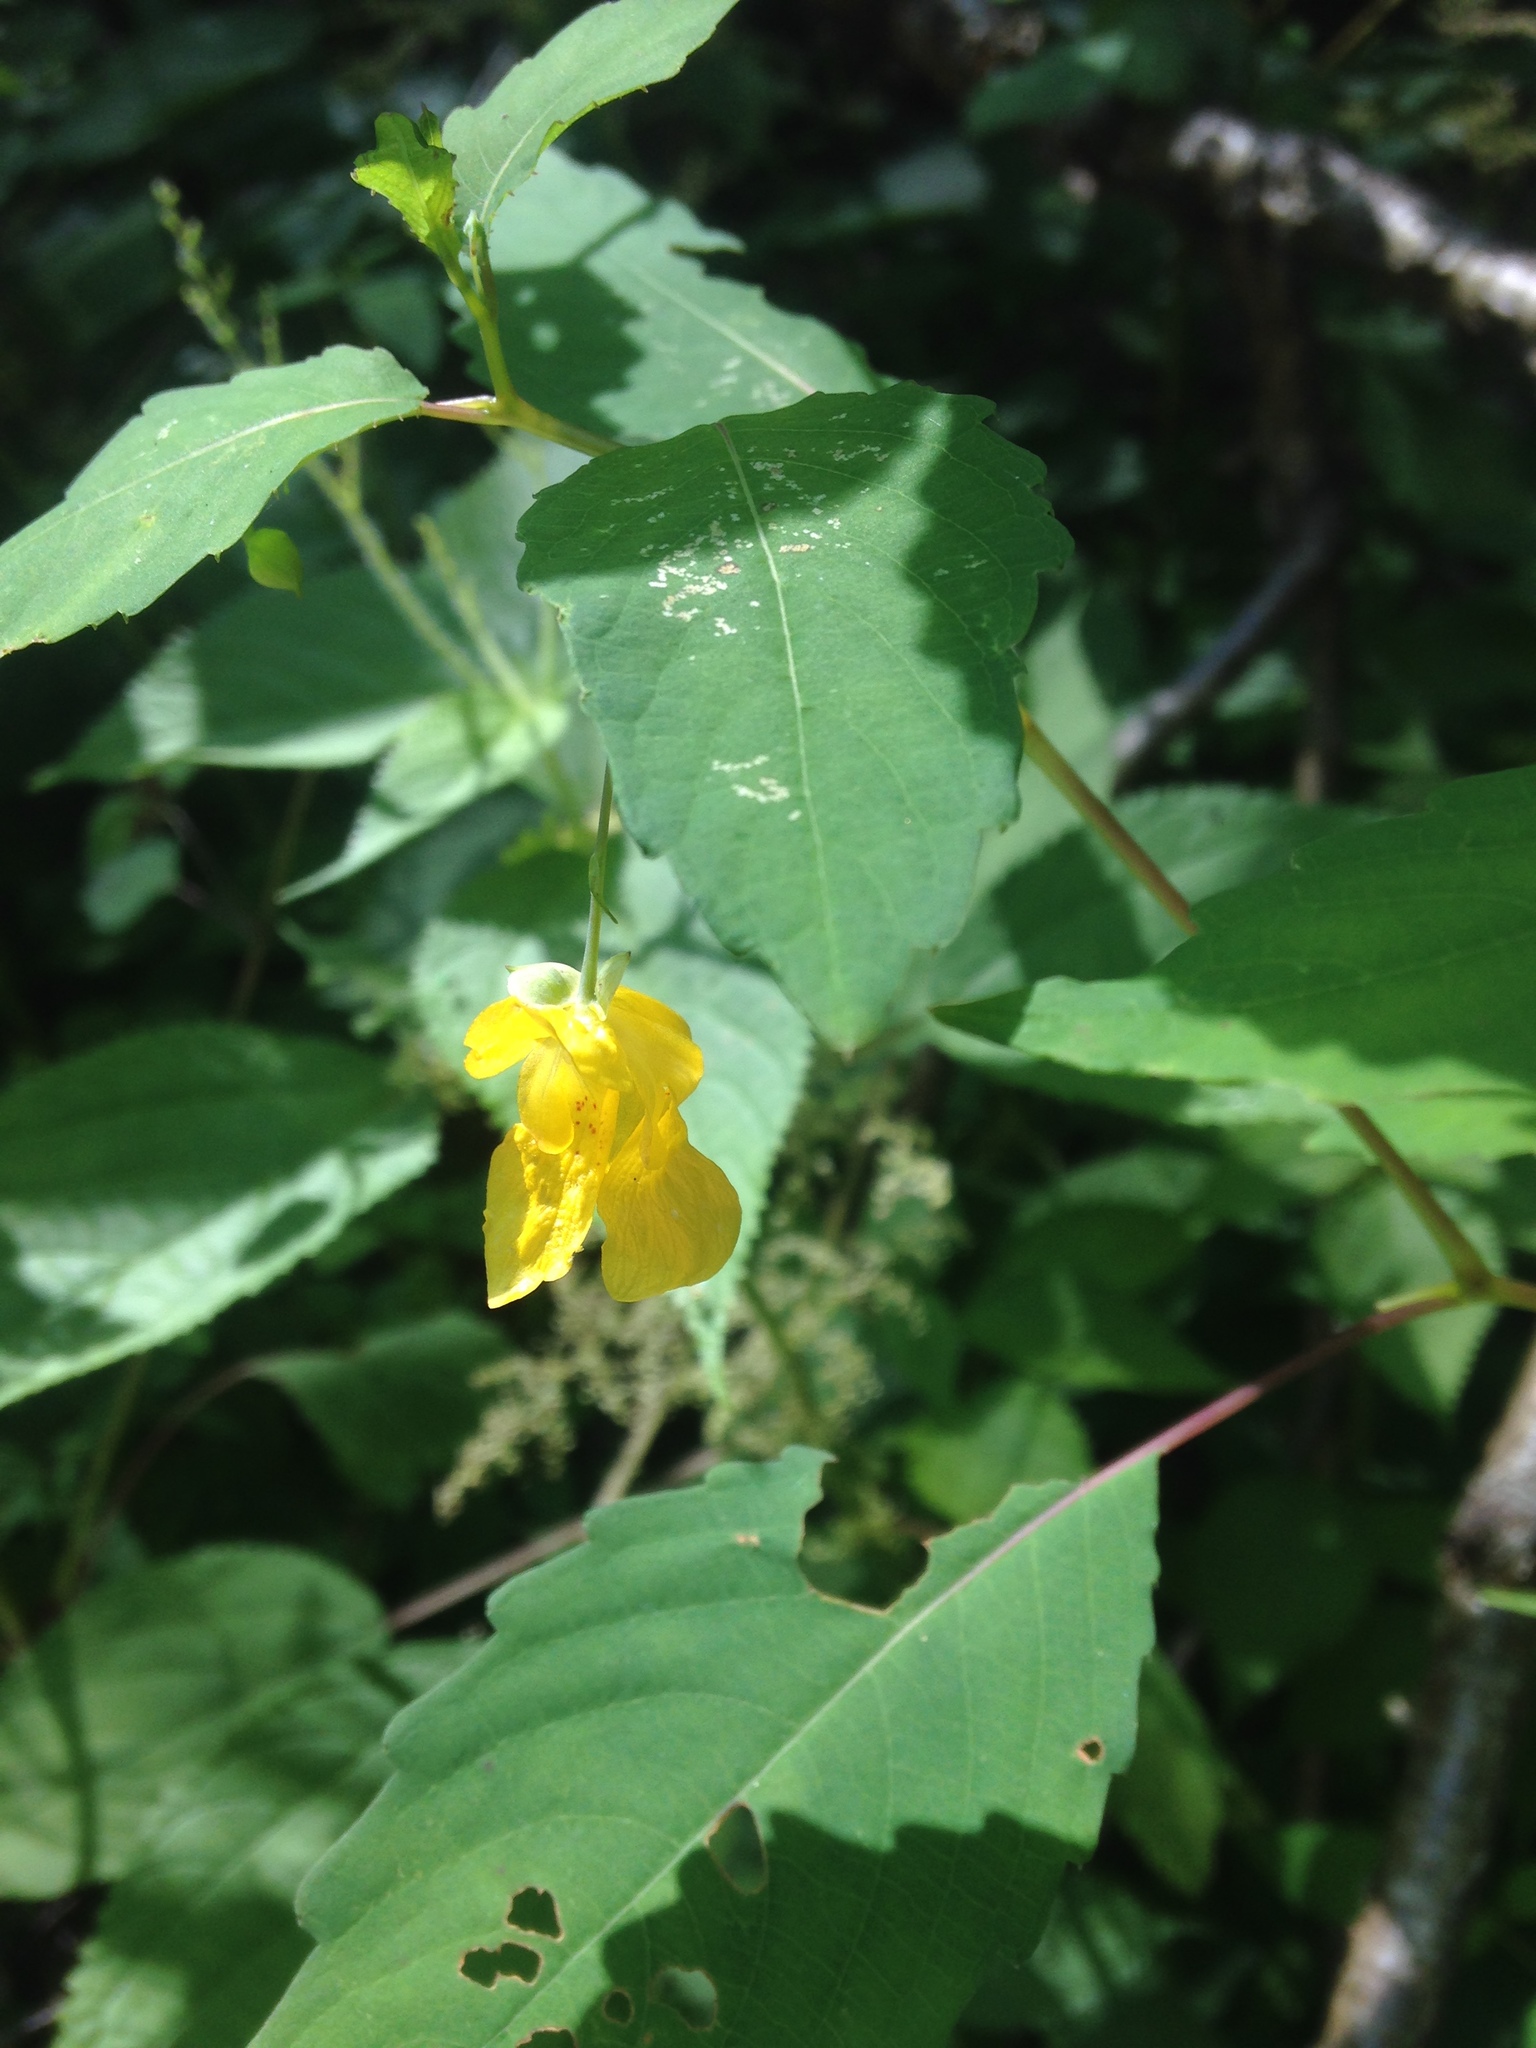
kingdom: Plantae
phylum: Tracheophyta
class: Magnoliopsida
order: Ericales
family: Balsaminaceae
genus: Impatiens
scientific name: Impatiens pallida
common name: Pale snapweed
